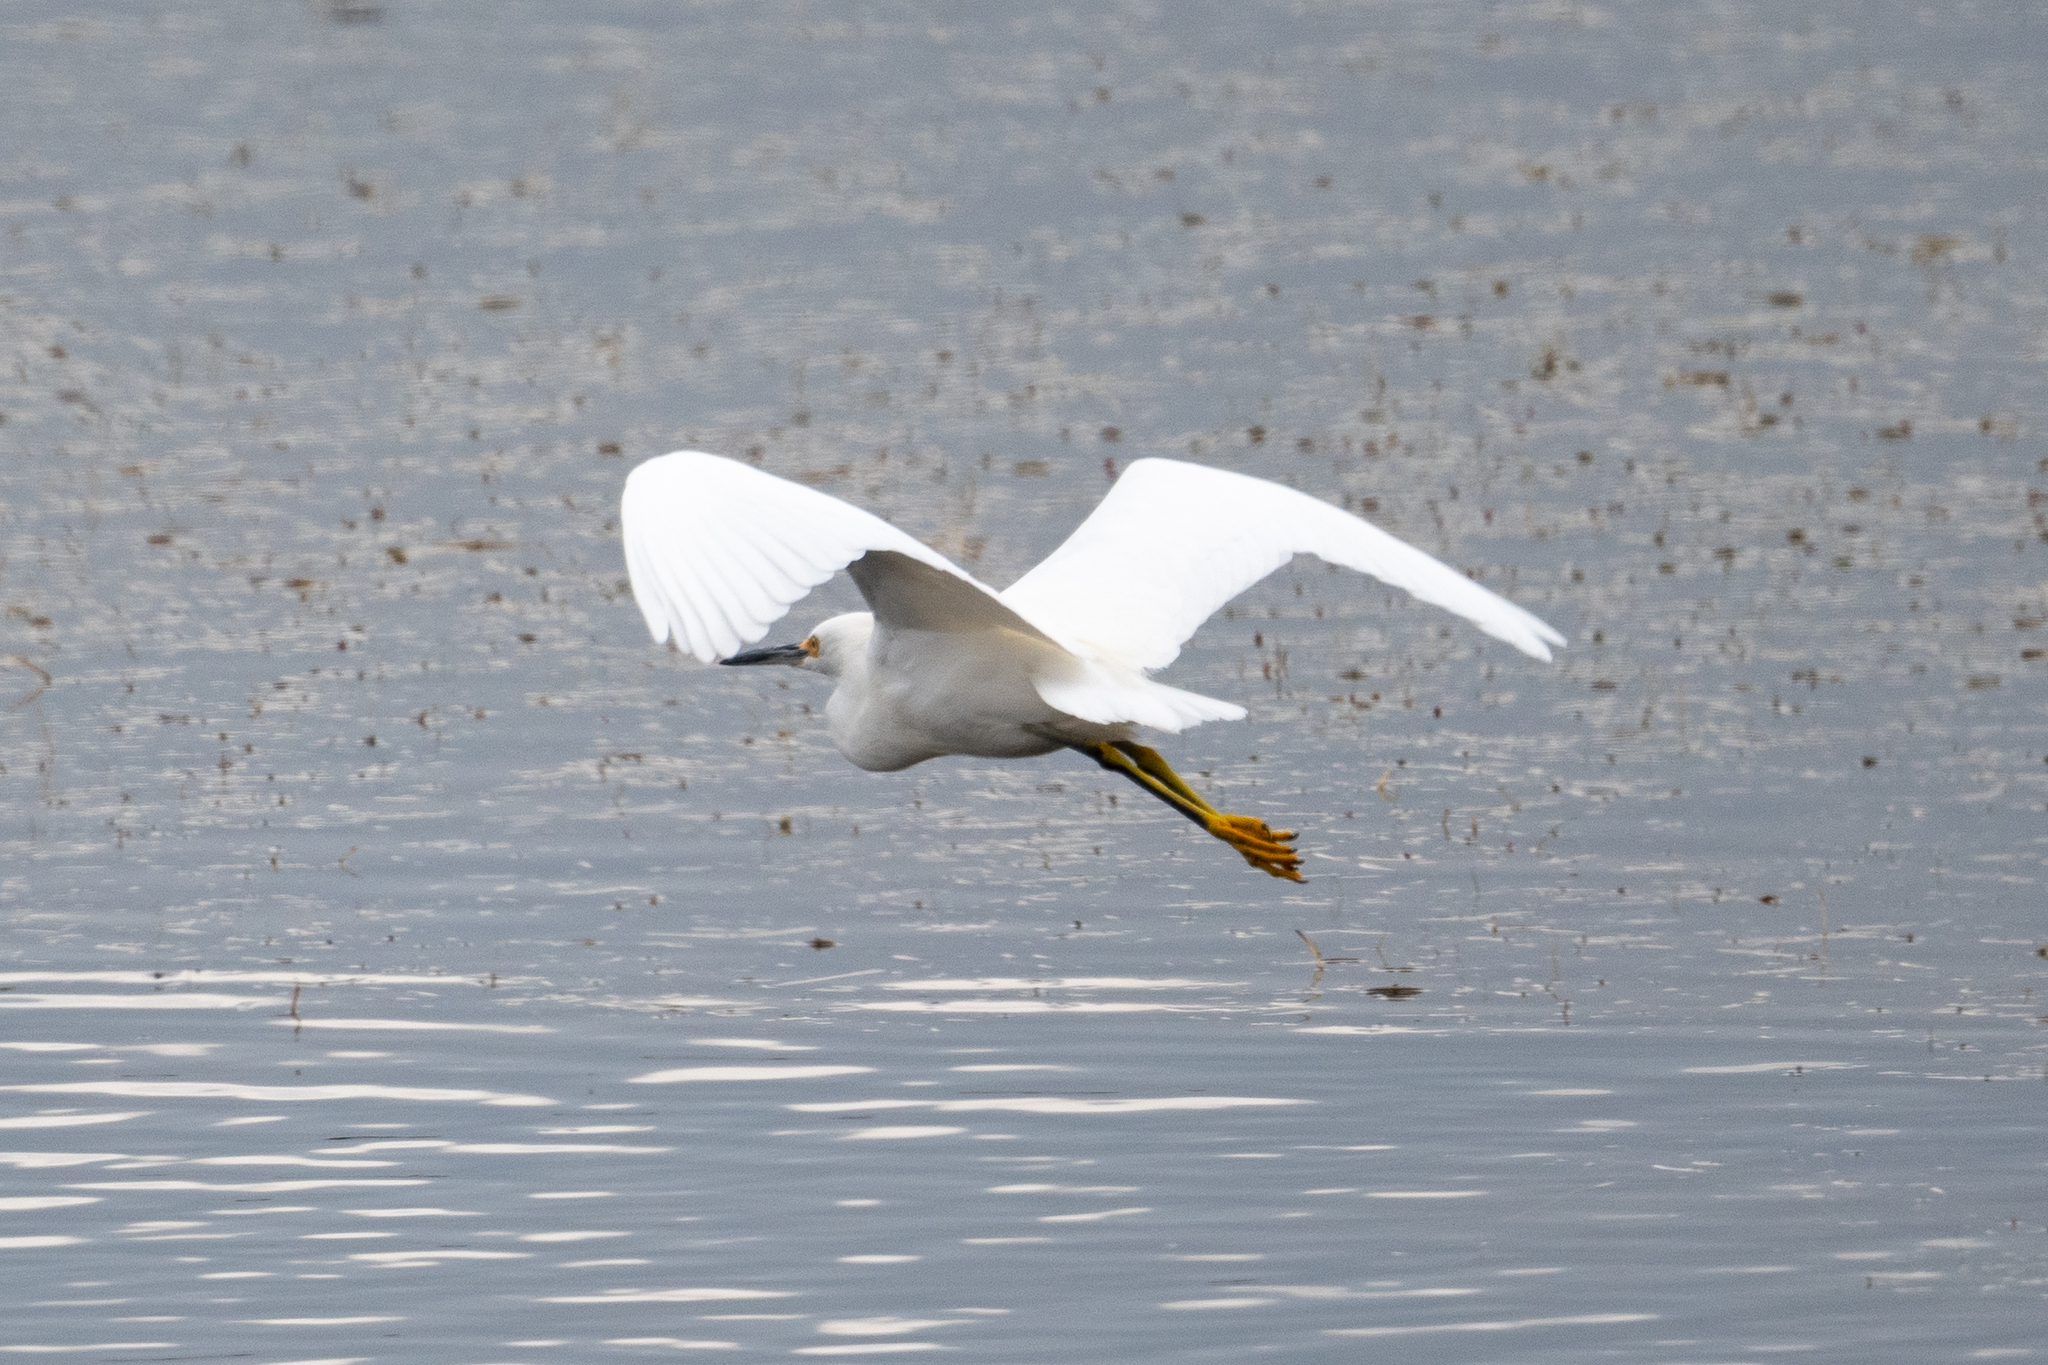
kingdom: Animalia
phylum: Chordata
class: Aves
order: Pelecaniformes
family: Ardeidae
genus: Egretta
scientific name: Egretta thula
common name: Snowy egret
